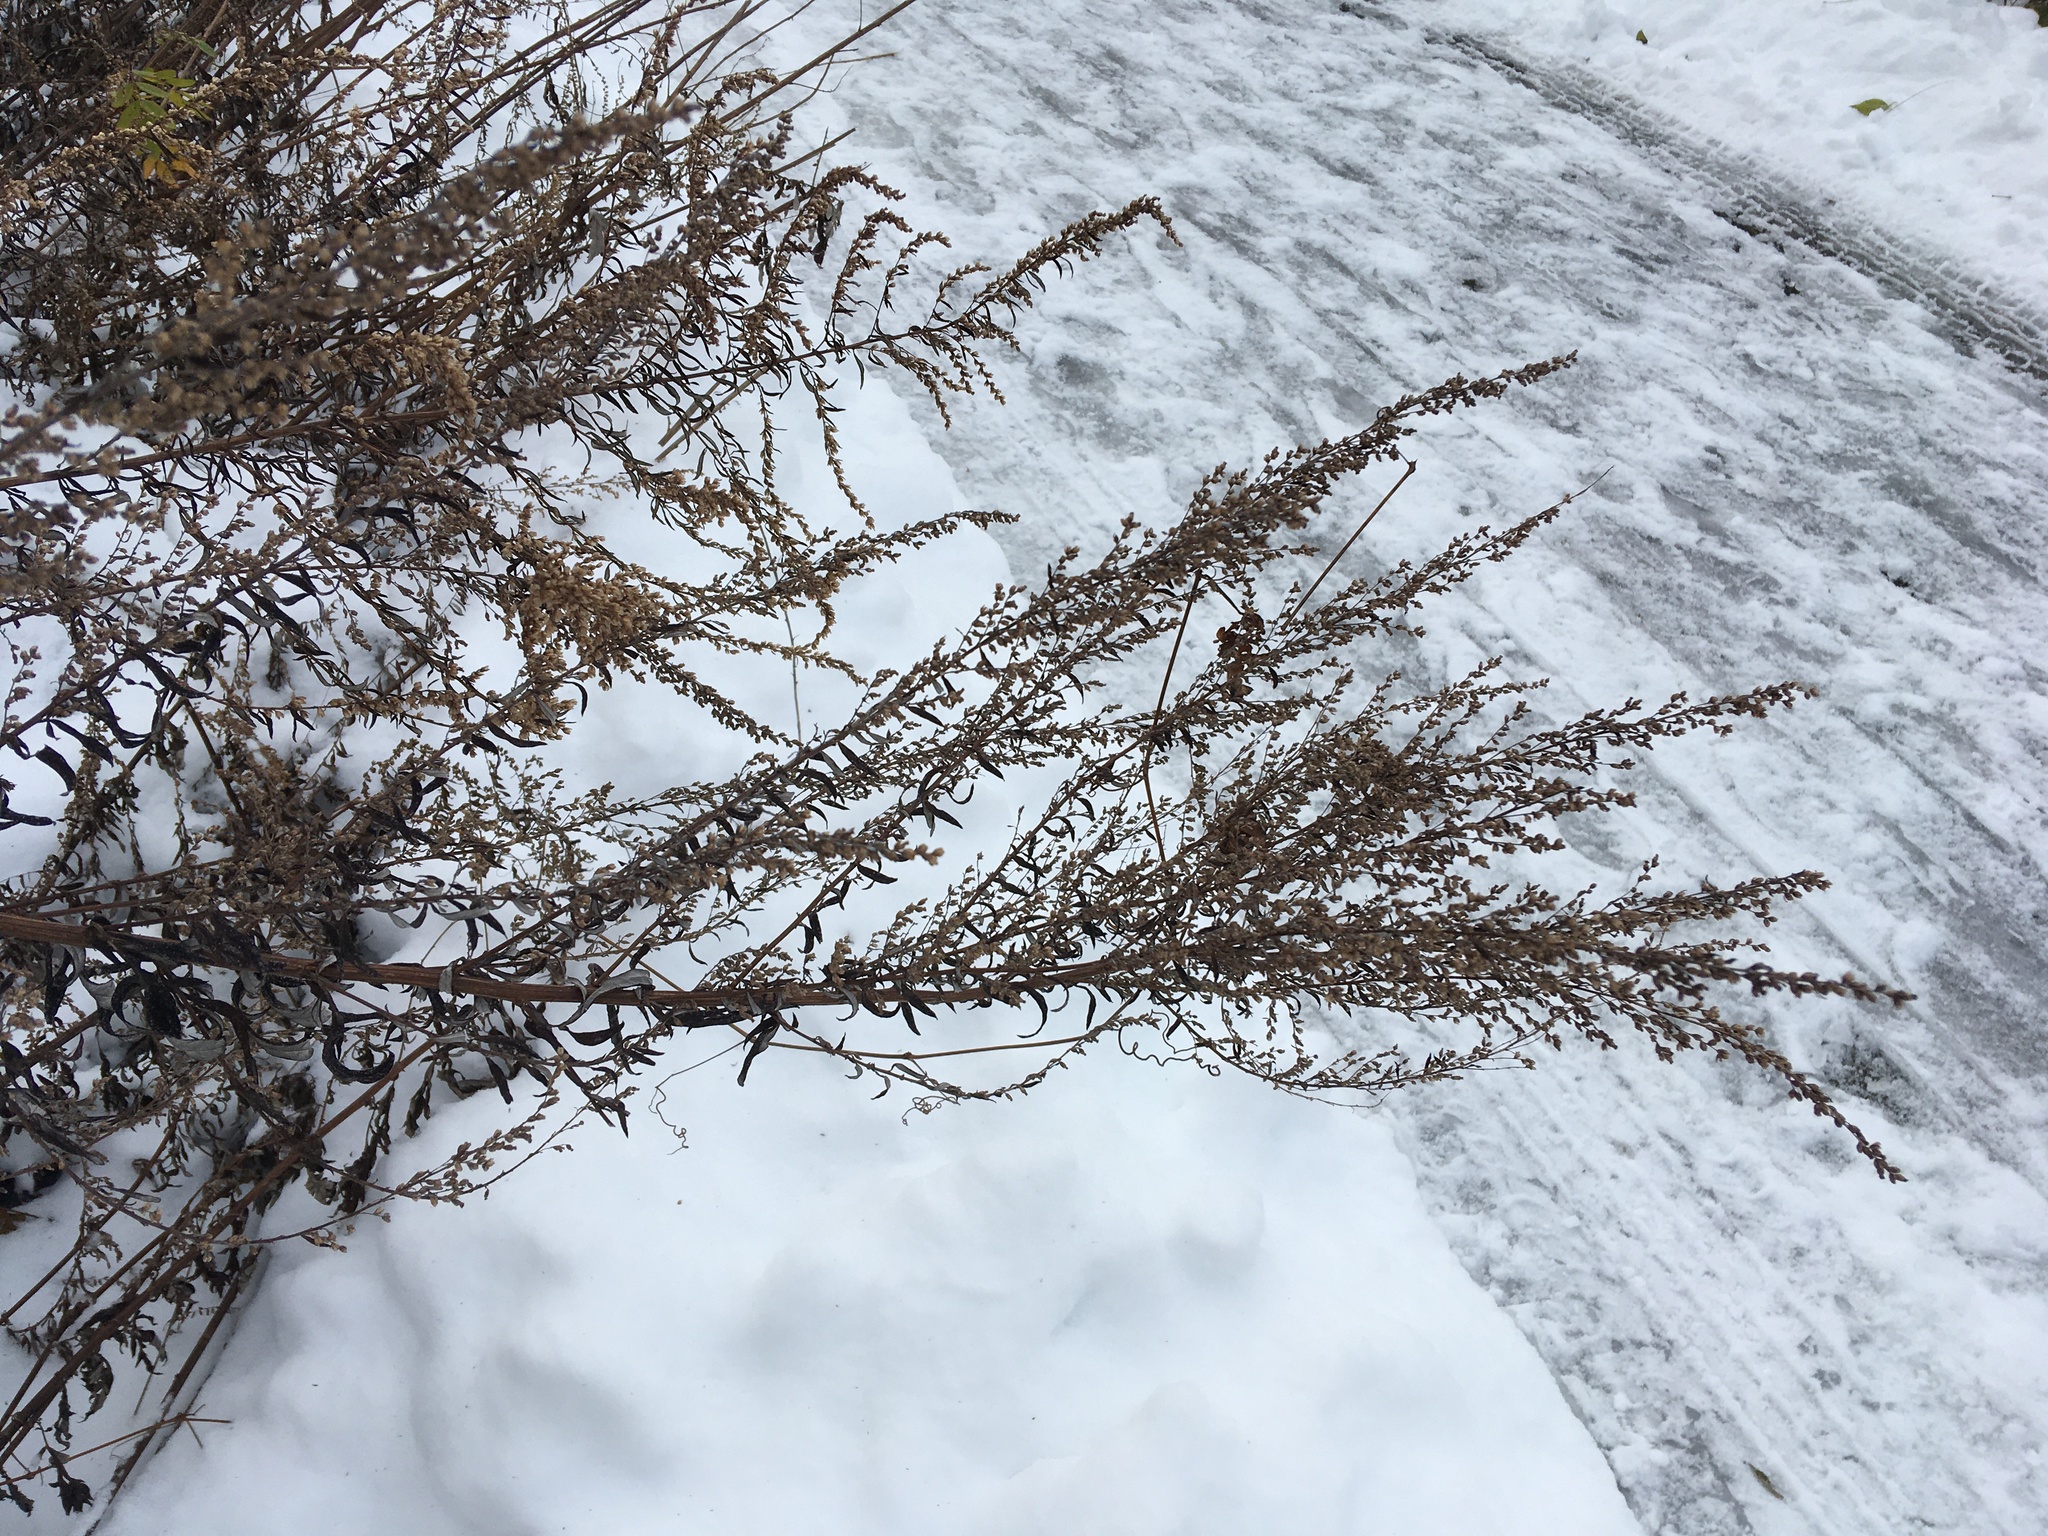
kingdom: Plantae
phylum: Tracheophyta
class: Magnoliopsida
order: Asterales
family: Asteraceae
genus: Artemisia
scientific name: Artemisia vulgaris
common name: Mugwort
